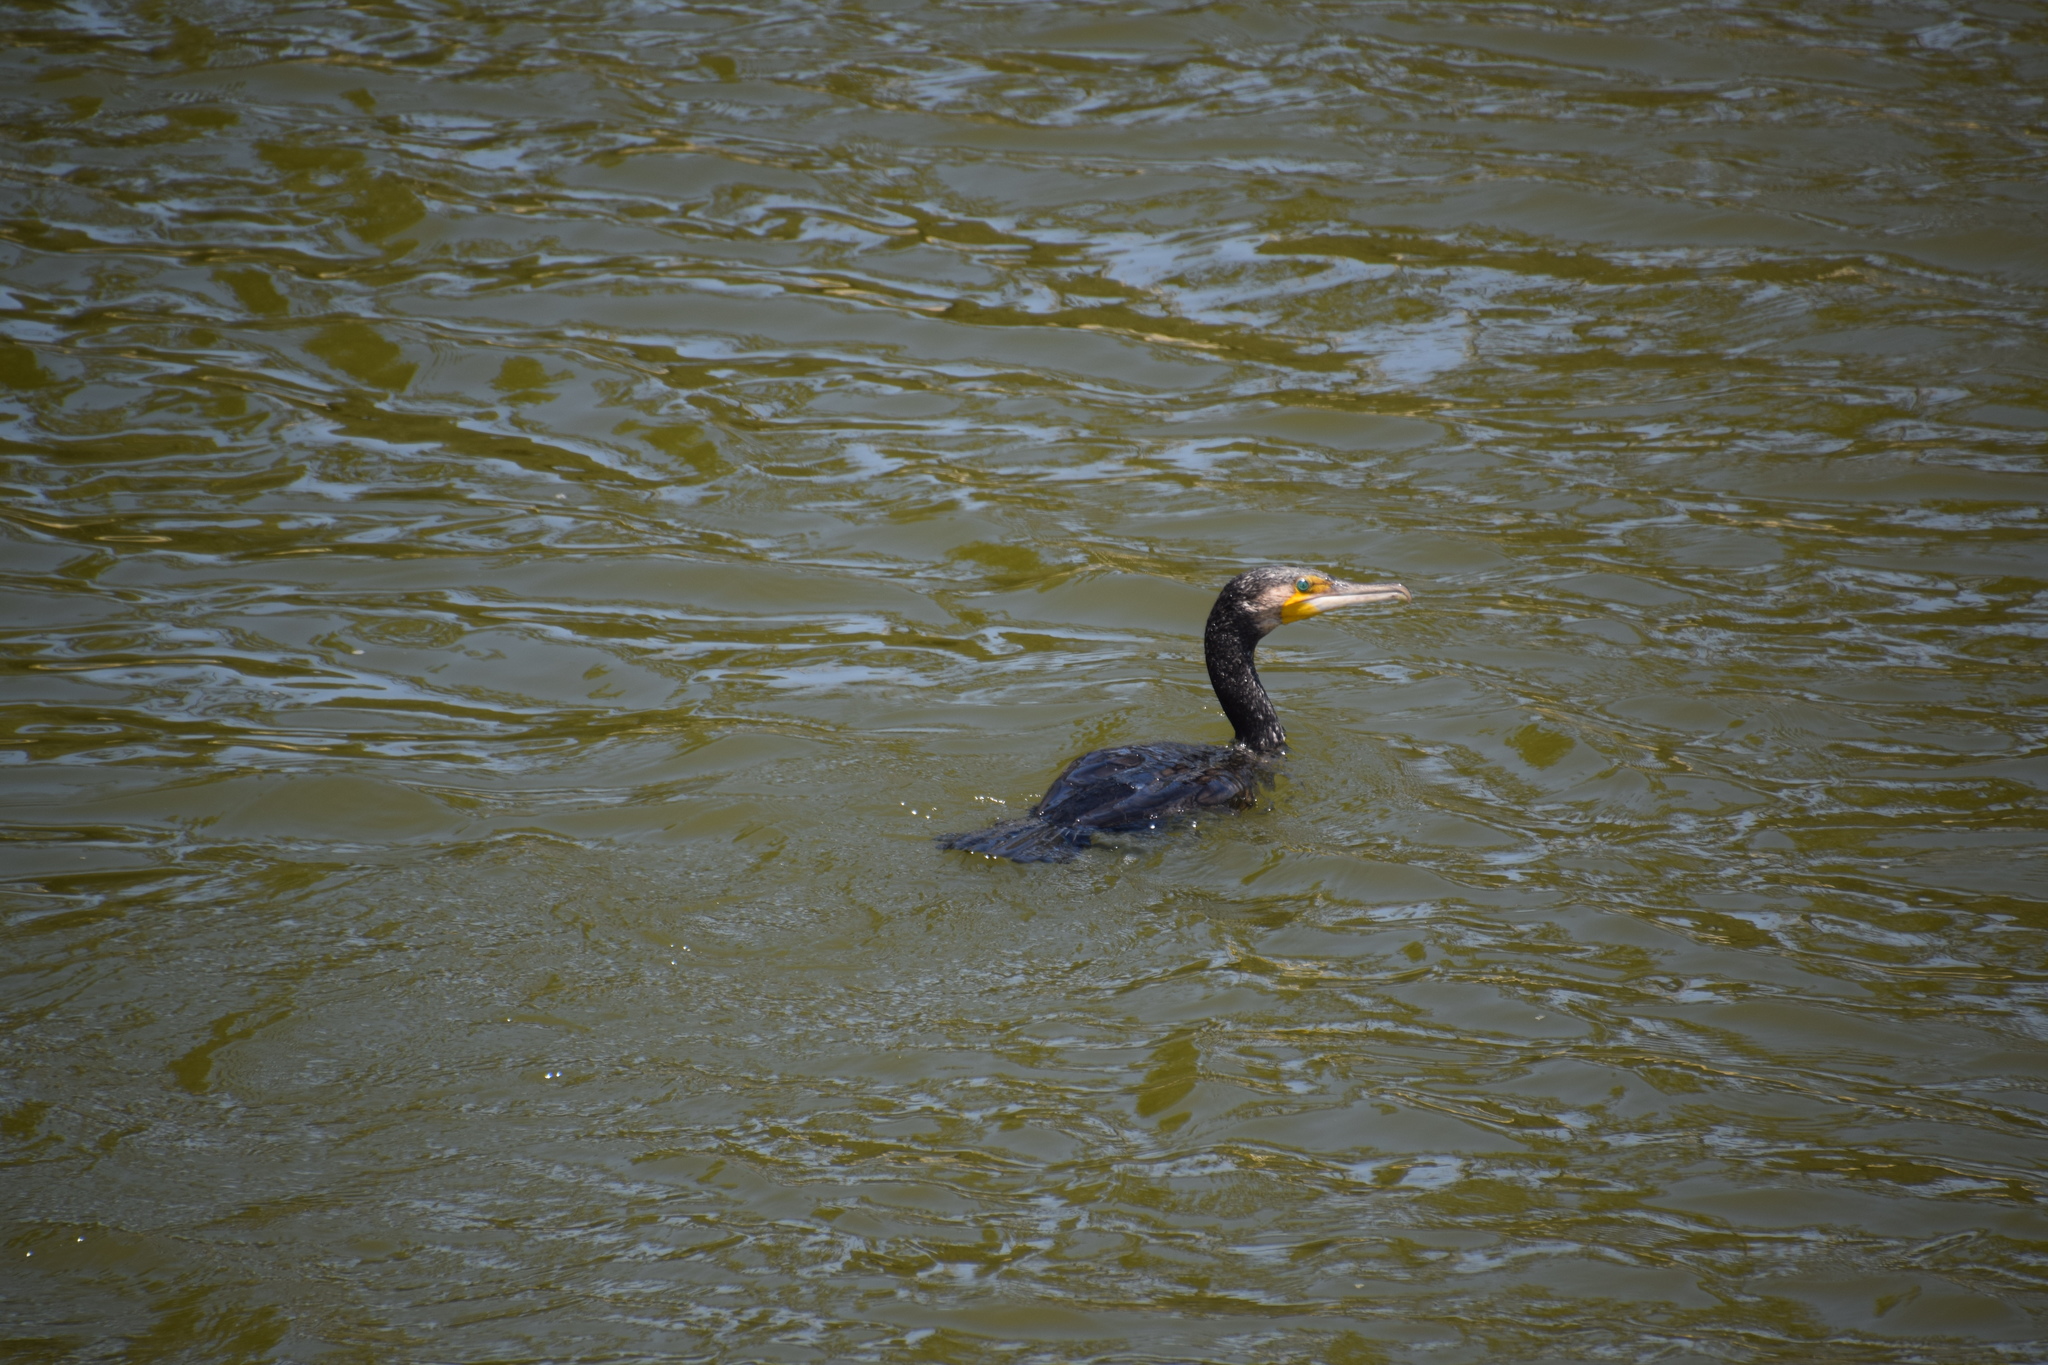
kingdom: Animalia
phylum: Chordata
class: Aves
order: Suliformes
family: Phalacrocoracidae
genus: Phalacrocorax
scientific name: Phalacrocorax carbo
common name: Great cormorant
